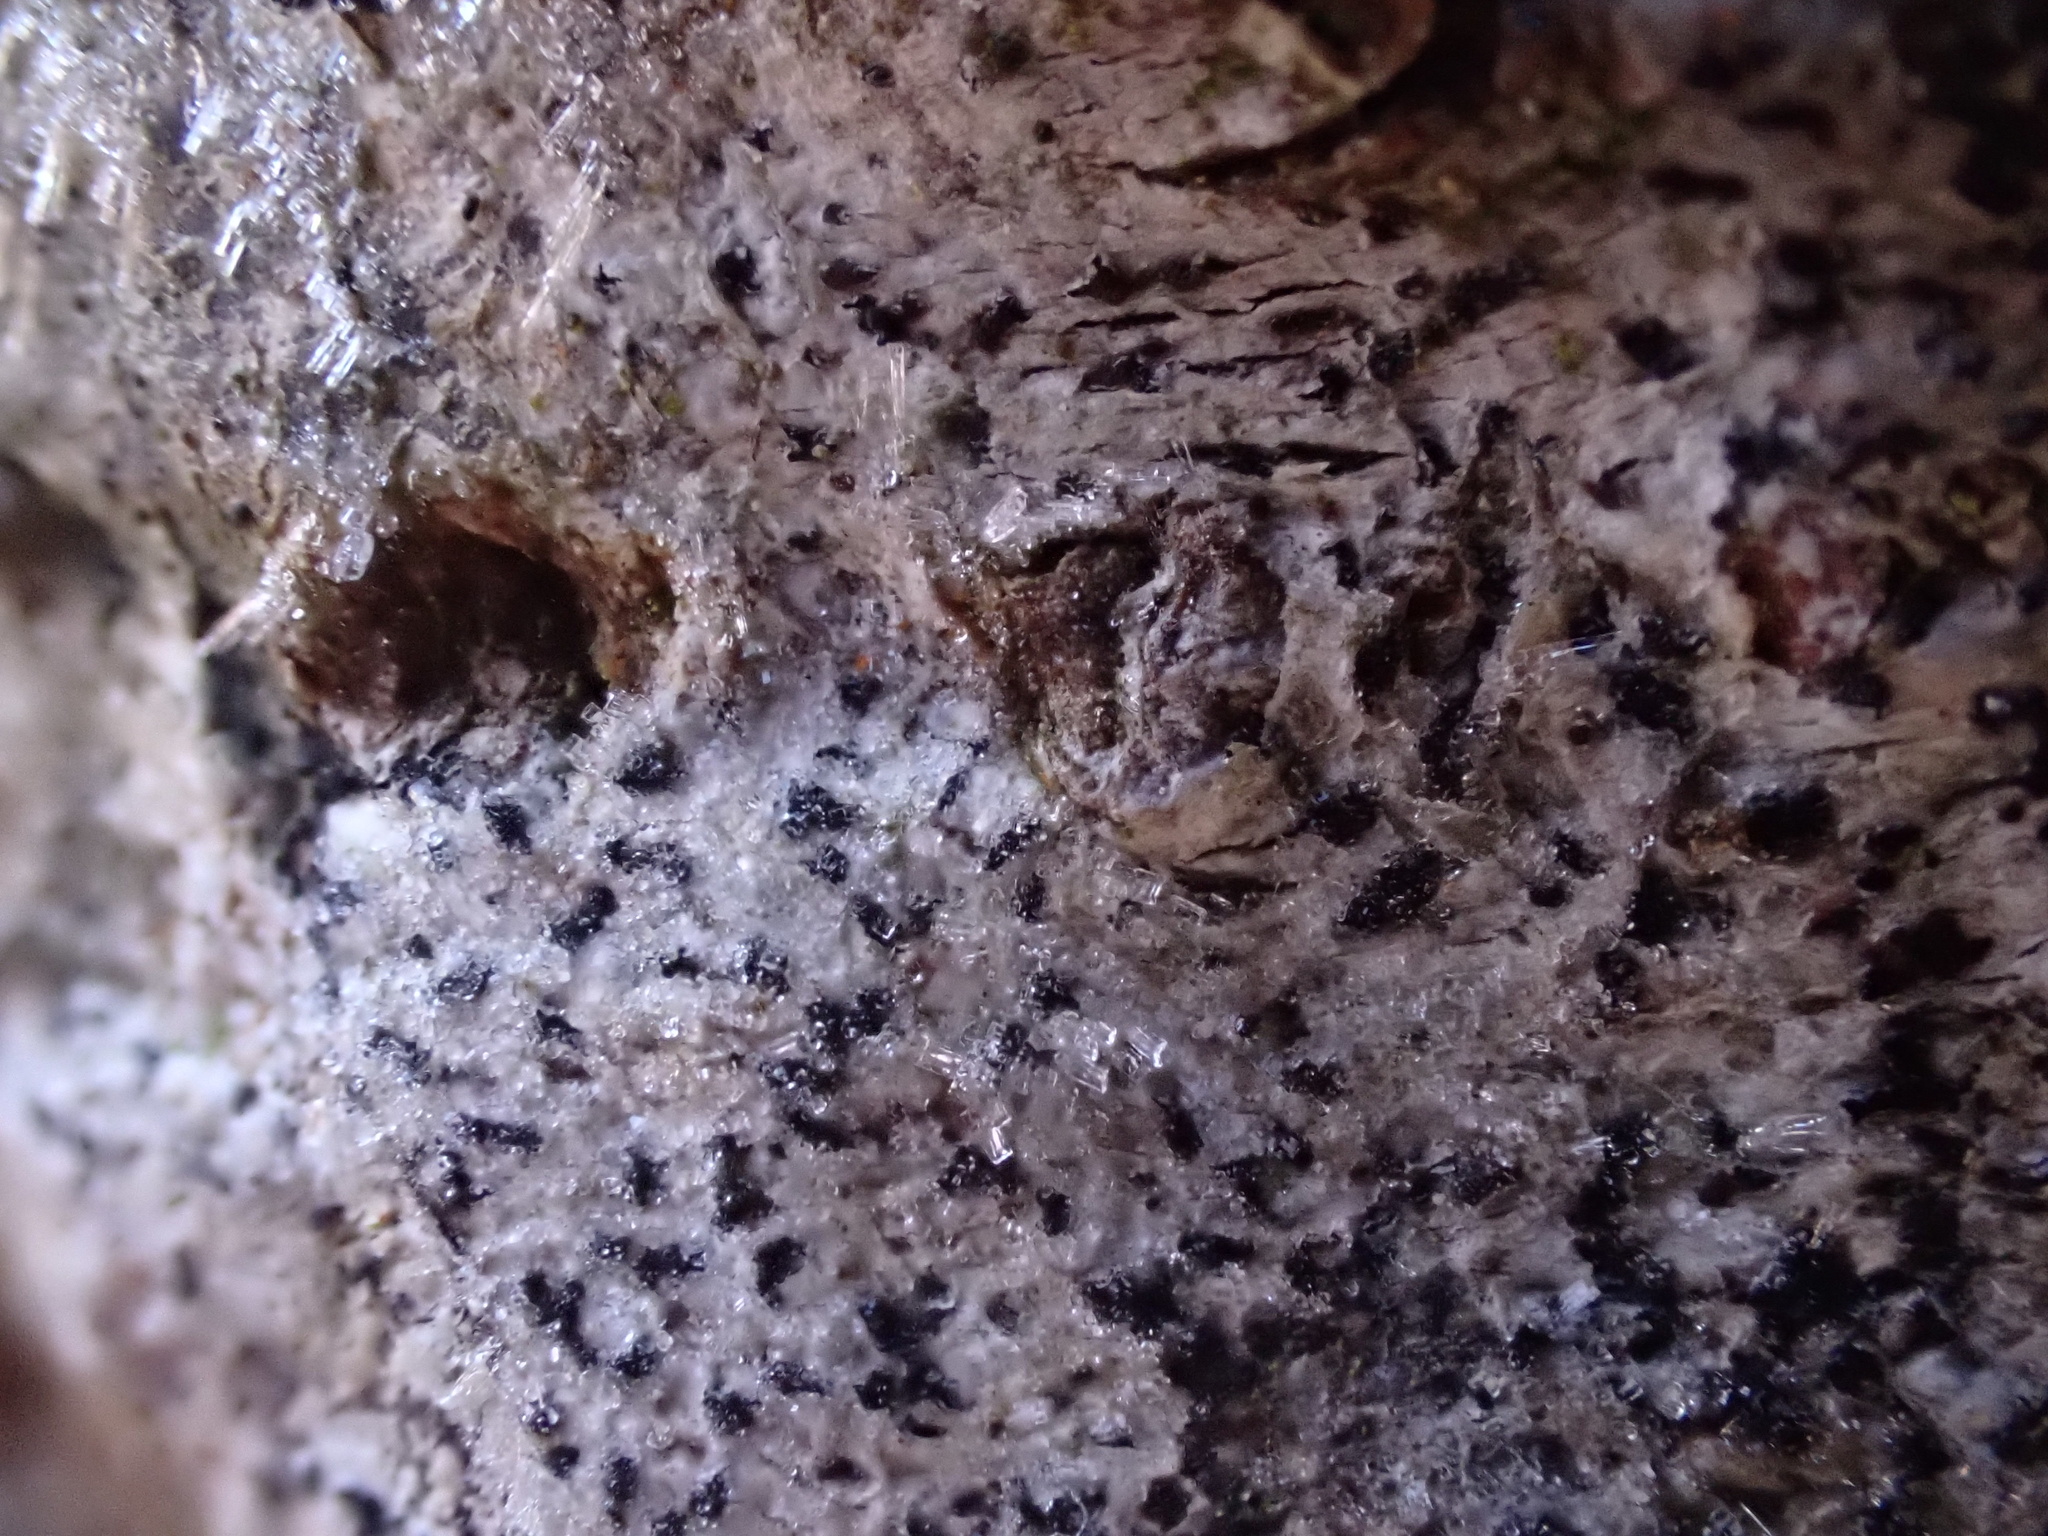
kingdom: Fungi
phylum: Ascomycota
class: Arthoniomycetes
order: Arthoniales
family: Arthoniaceae
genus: Arthonia
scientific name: Arthonia radiata
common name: Asterisk lichen
